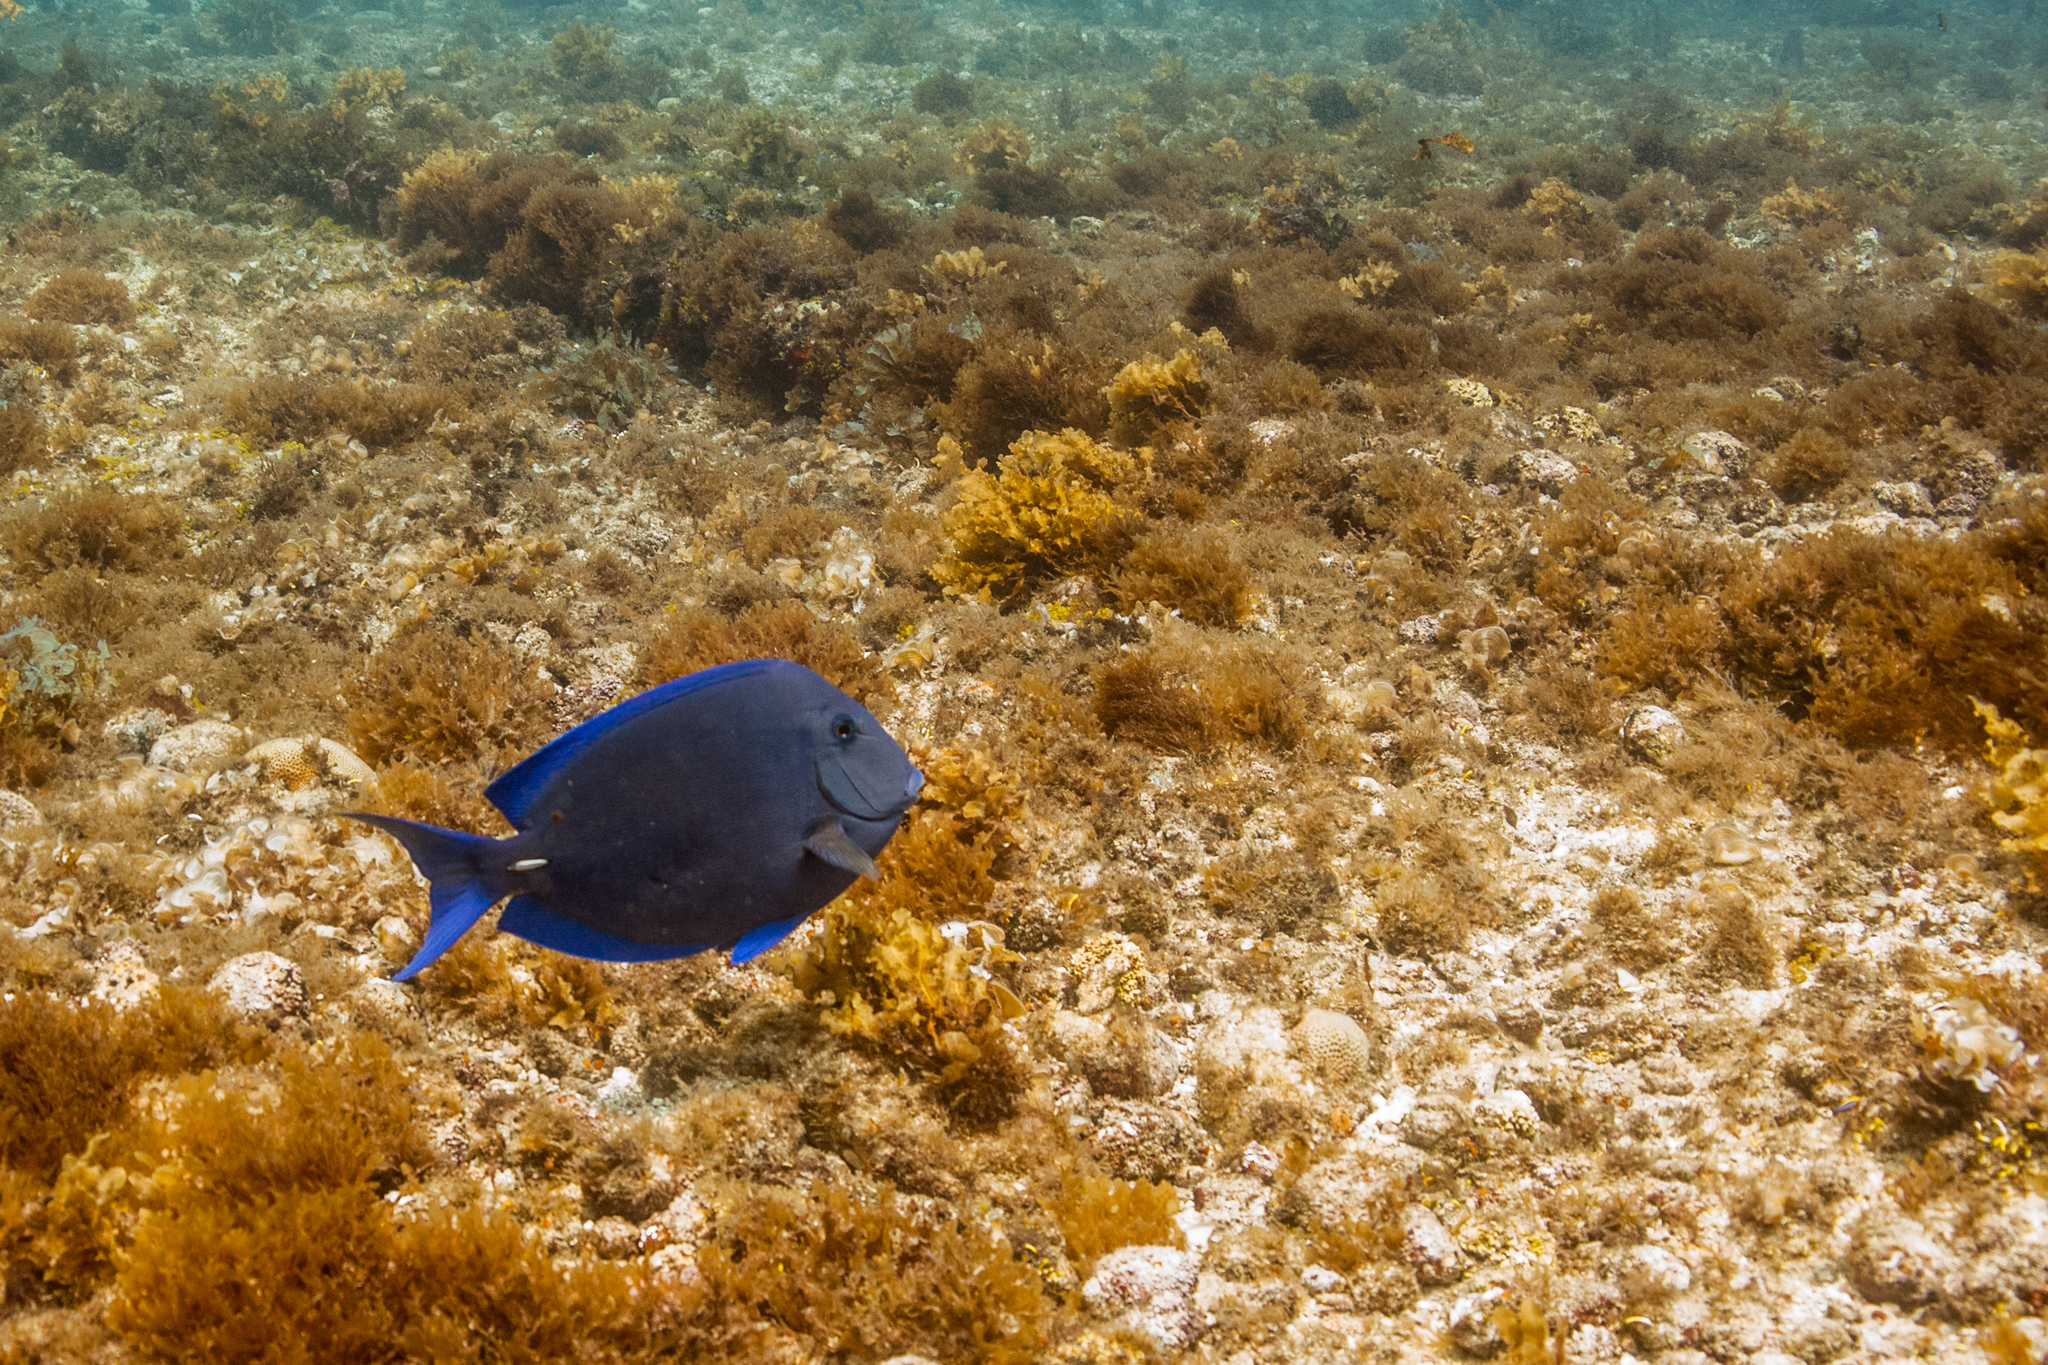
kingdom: Animalia
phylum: Chordata
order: Perciformes
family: Acanthuridae
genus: Acanthurus
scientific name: Acanthurus coeruleus
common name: Blue tang
